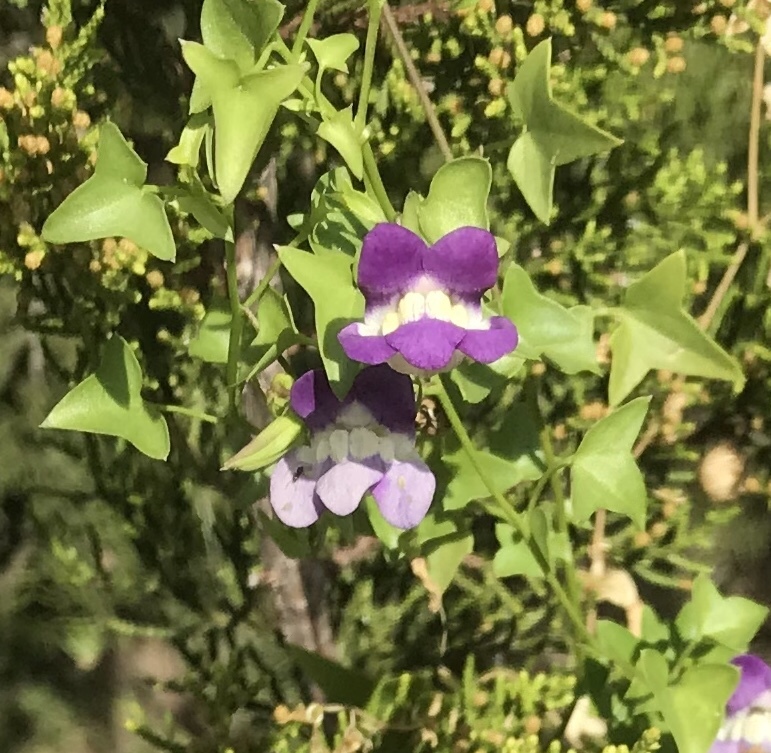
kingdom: Plantae
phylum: Tracheophyta
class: Magnoliopsida
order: Lamiales
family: Plantaginaceae
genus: Maurandella
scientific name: Maurandella antirrhiniflora
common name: Violet twining-snapdragon
